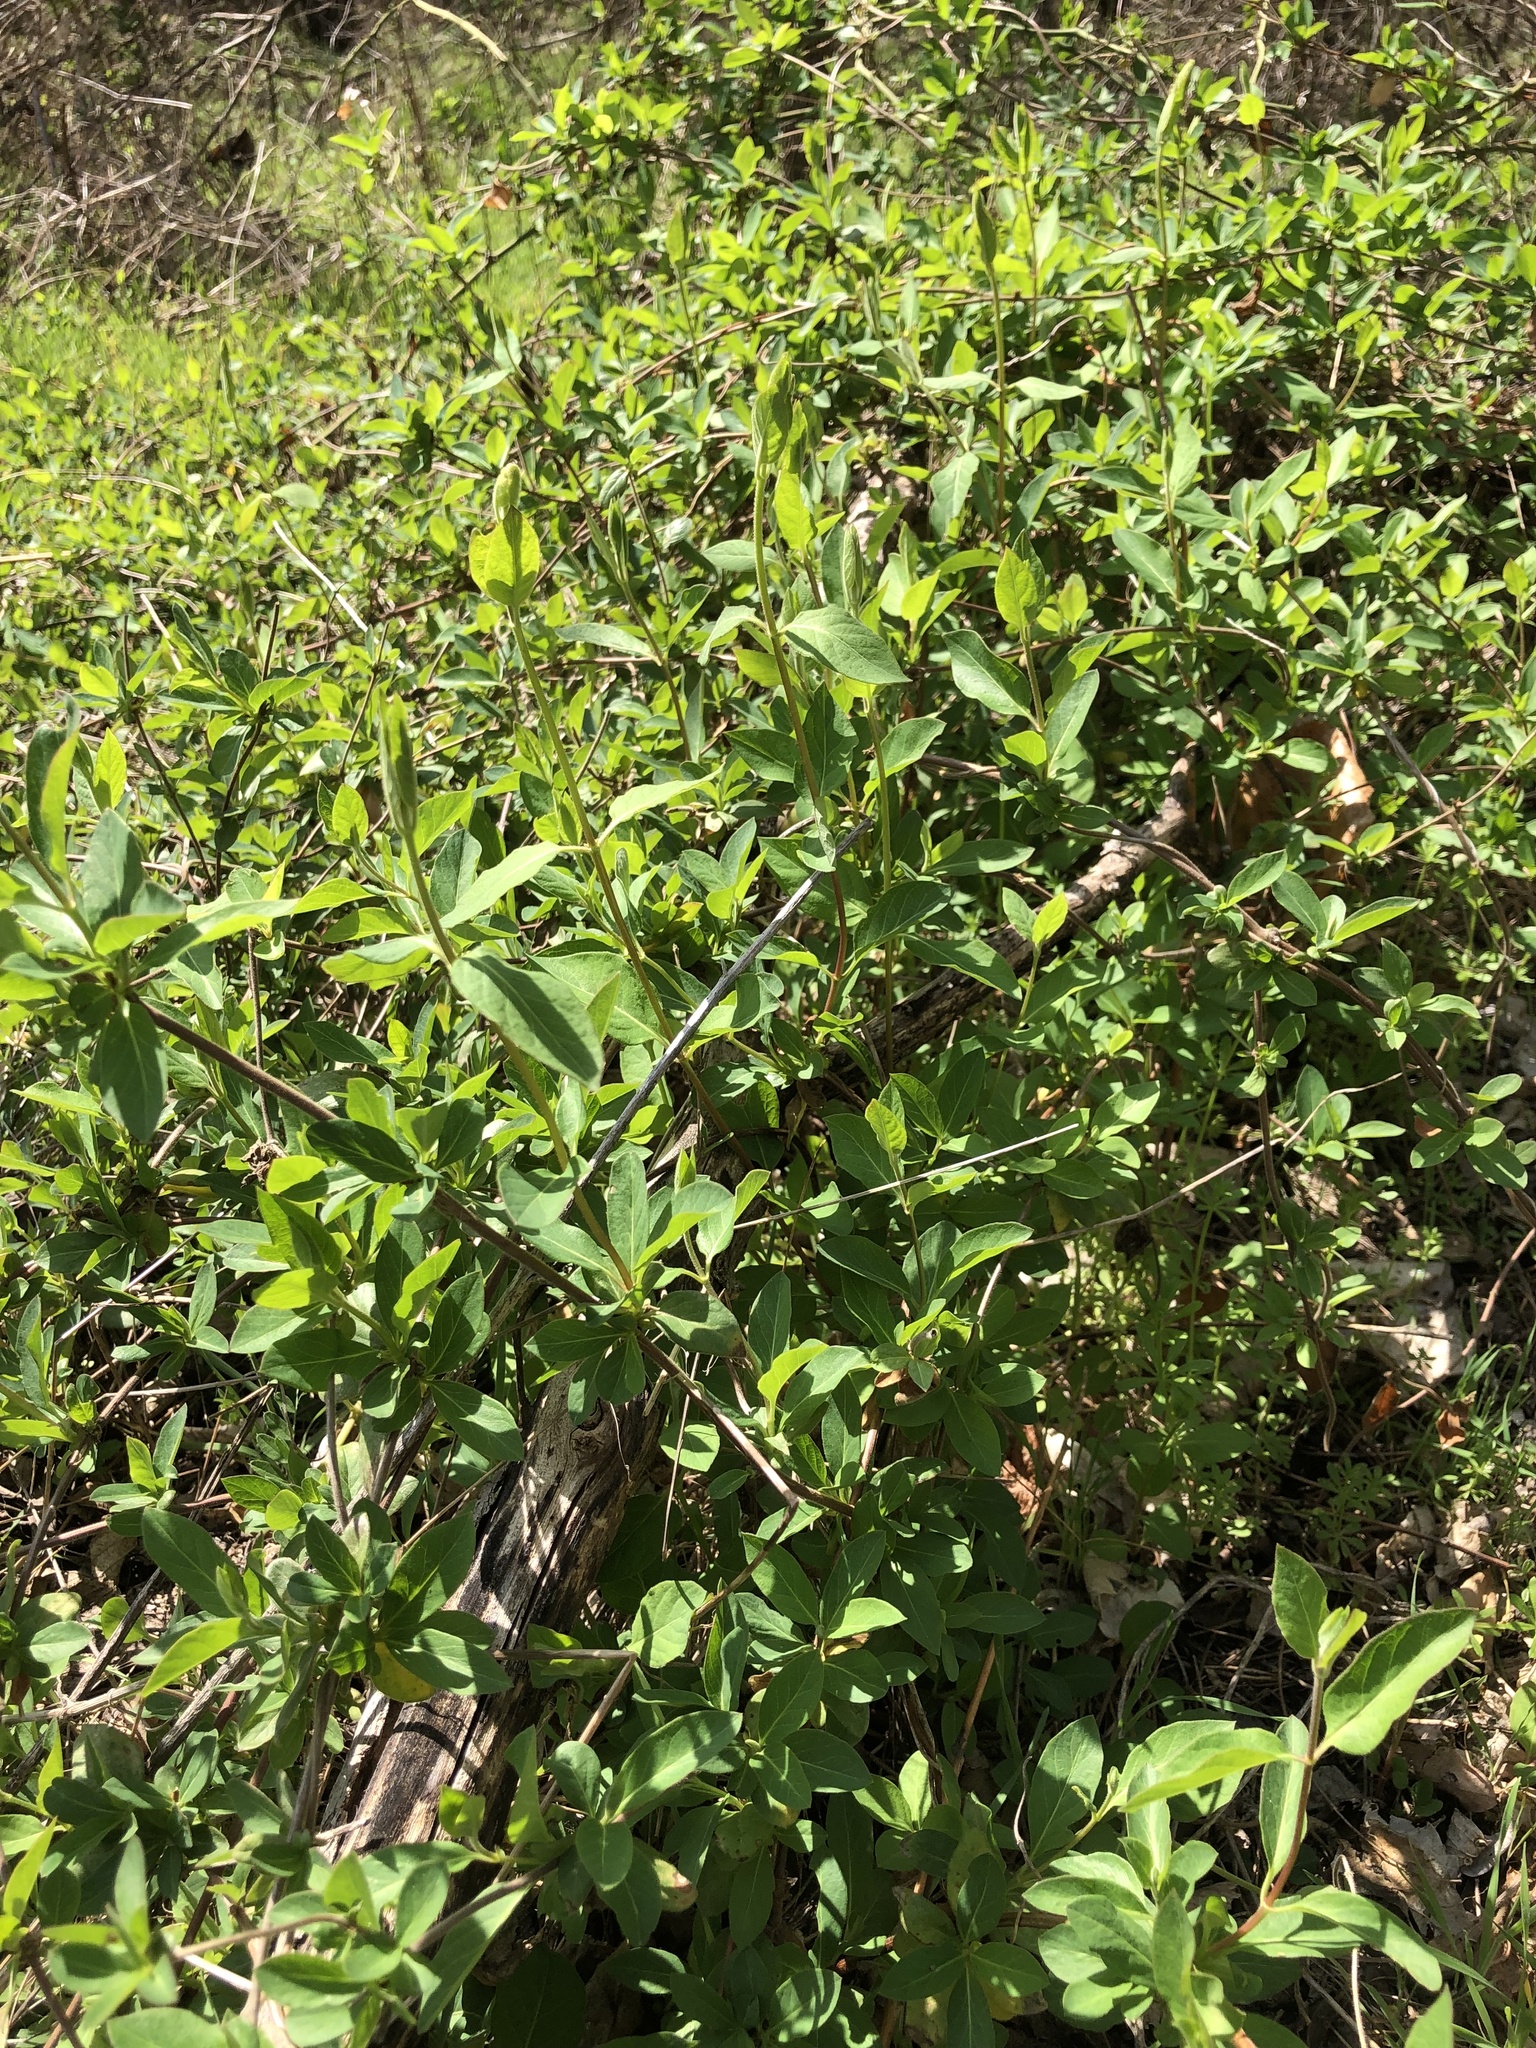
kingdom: Plantae
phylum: Tracheophyta
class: Magnoliopsida
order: Dipsacales
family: Caprifoliaceae
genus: Lonicera
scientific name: Lonicera japonica
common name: Japanese honeysuckle
